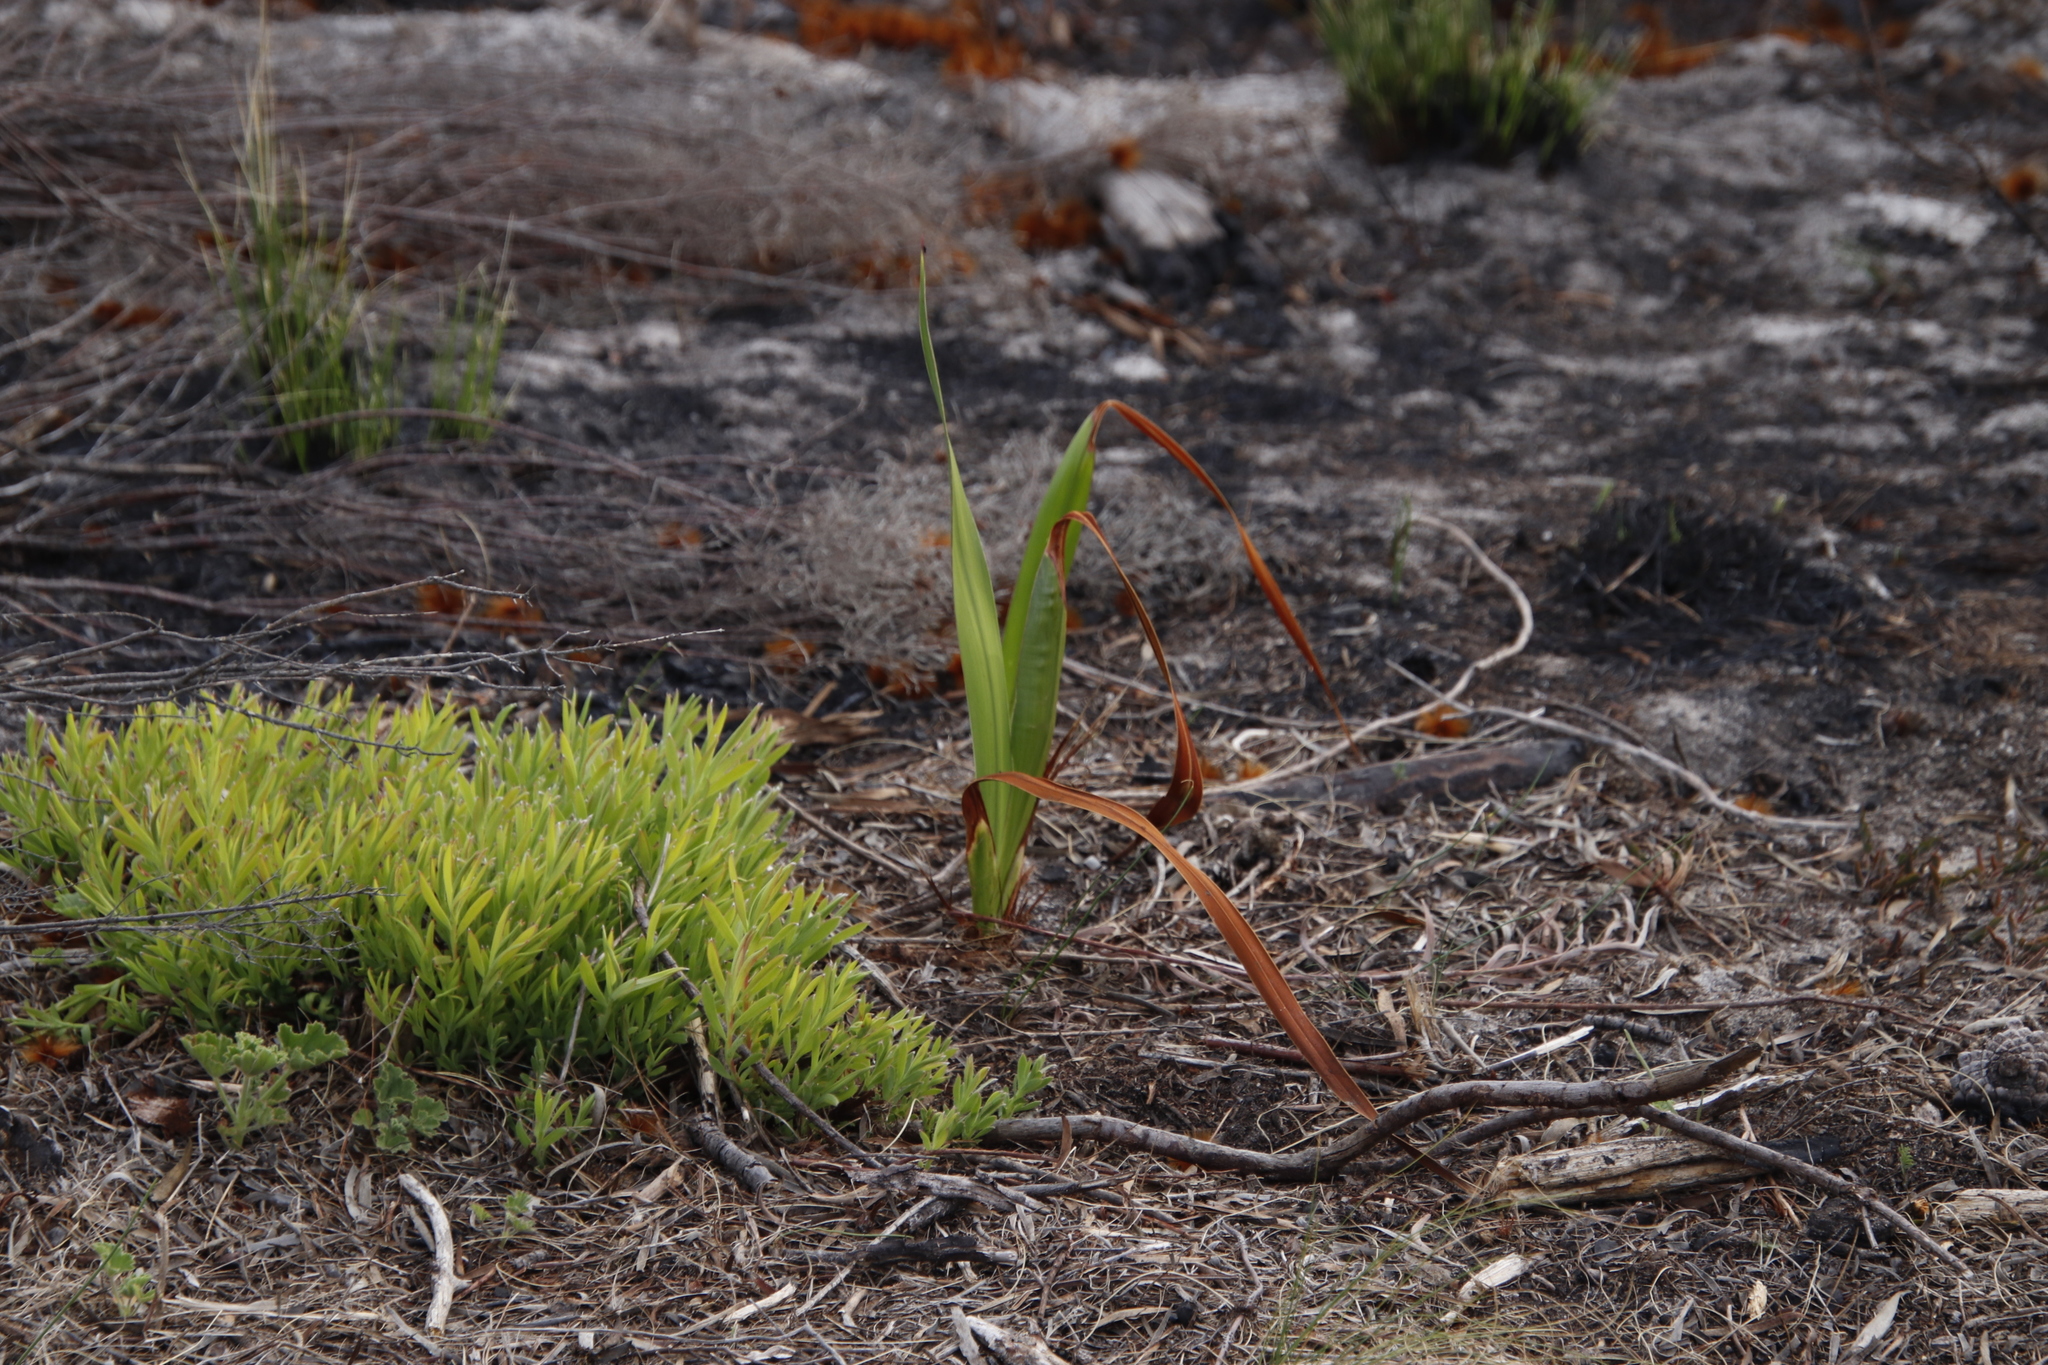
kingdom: Plantae
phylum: Tracheophyta
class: Magnoliopsida
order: Proteales
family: Proteaceae
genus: Leucadendron
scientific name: Leucadendron salignum
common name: Common sunshine conebush
